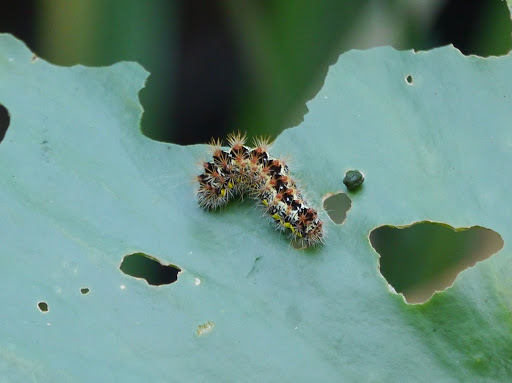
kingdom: Animalia
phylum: Arthropoda
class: Insecta
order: Lepidoptera
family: Noctuidae
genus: Acronicta
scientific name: Acronicta oblinita
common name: Smeared dagger
